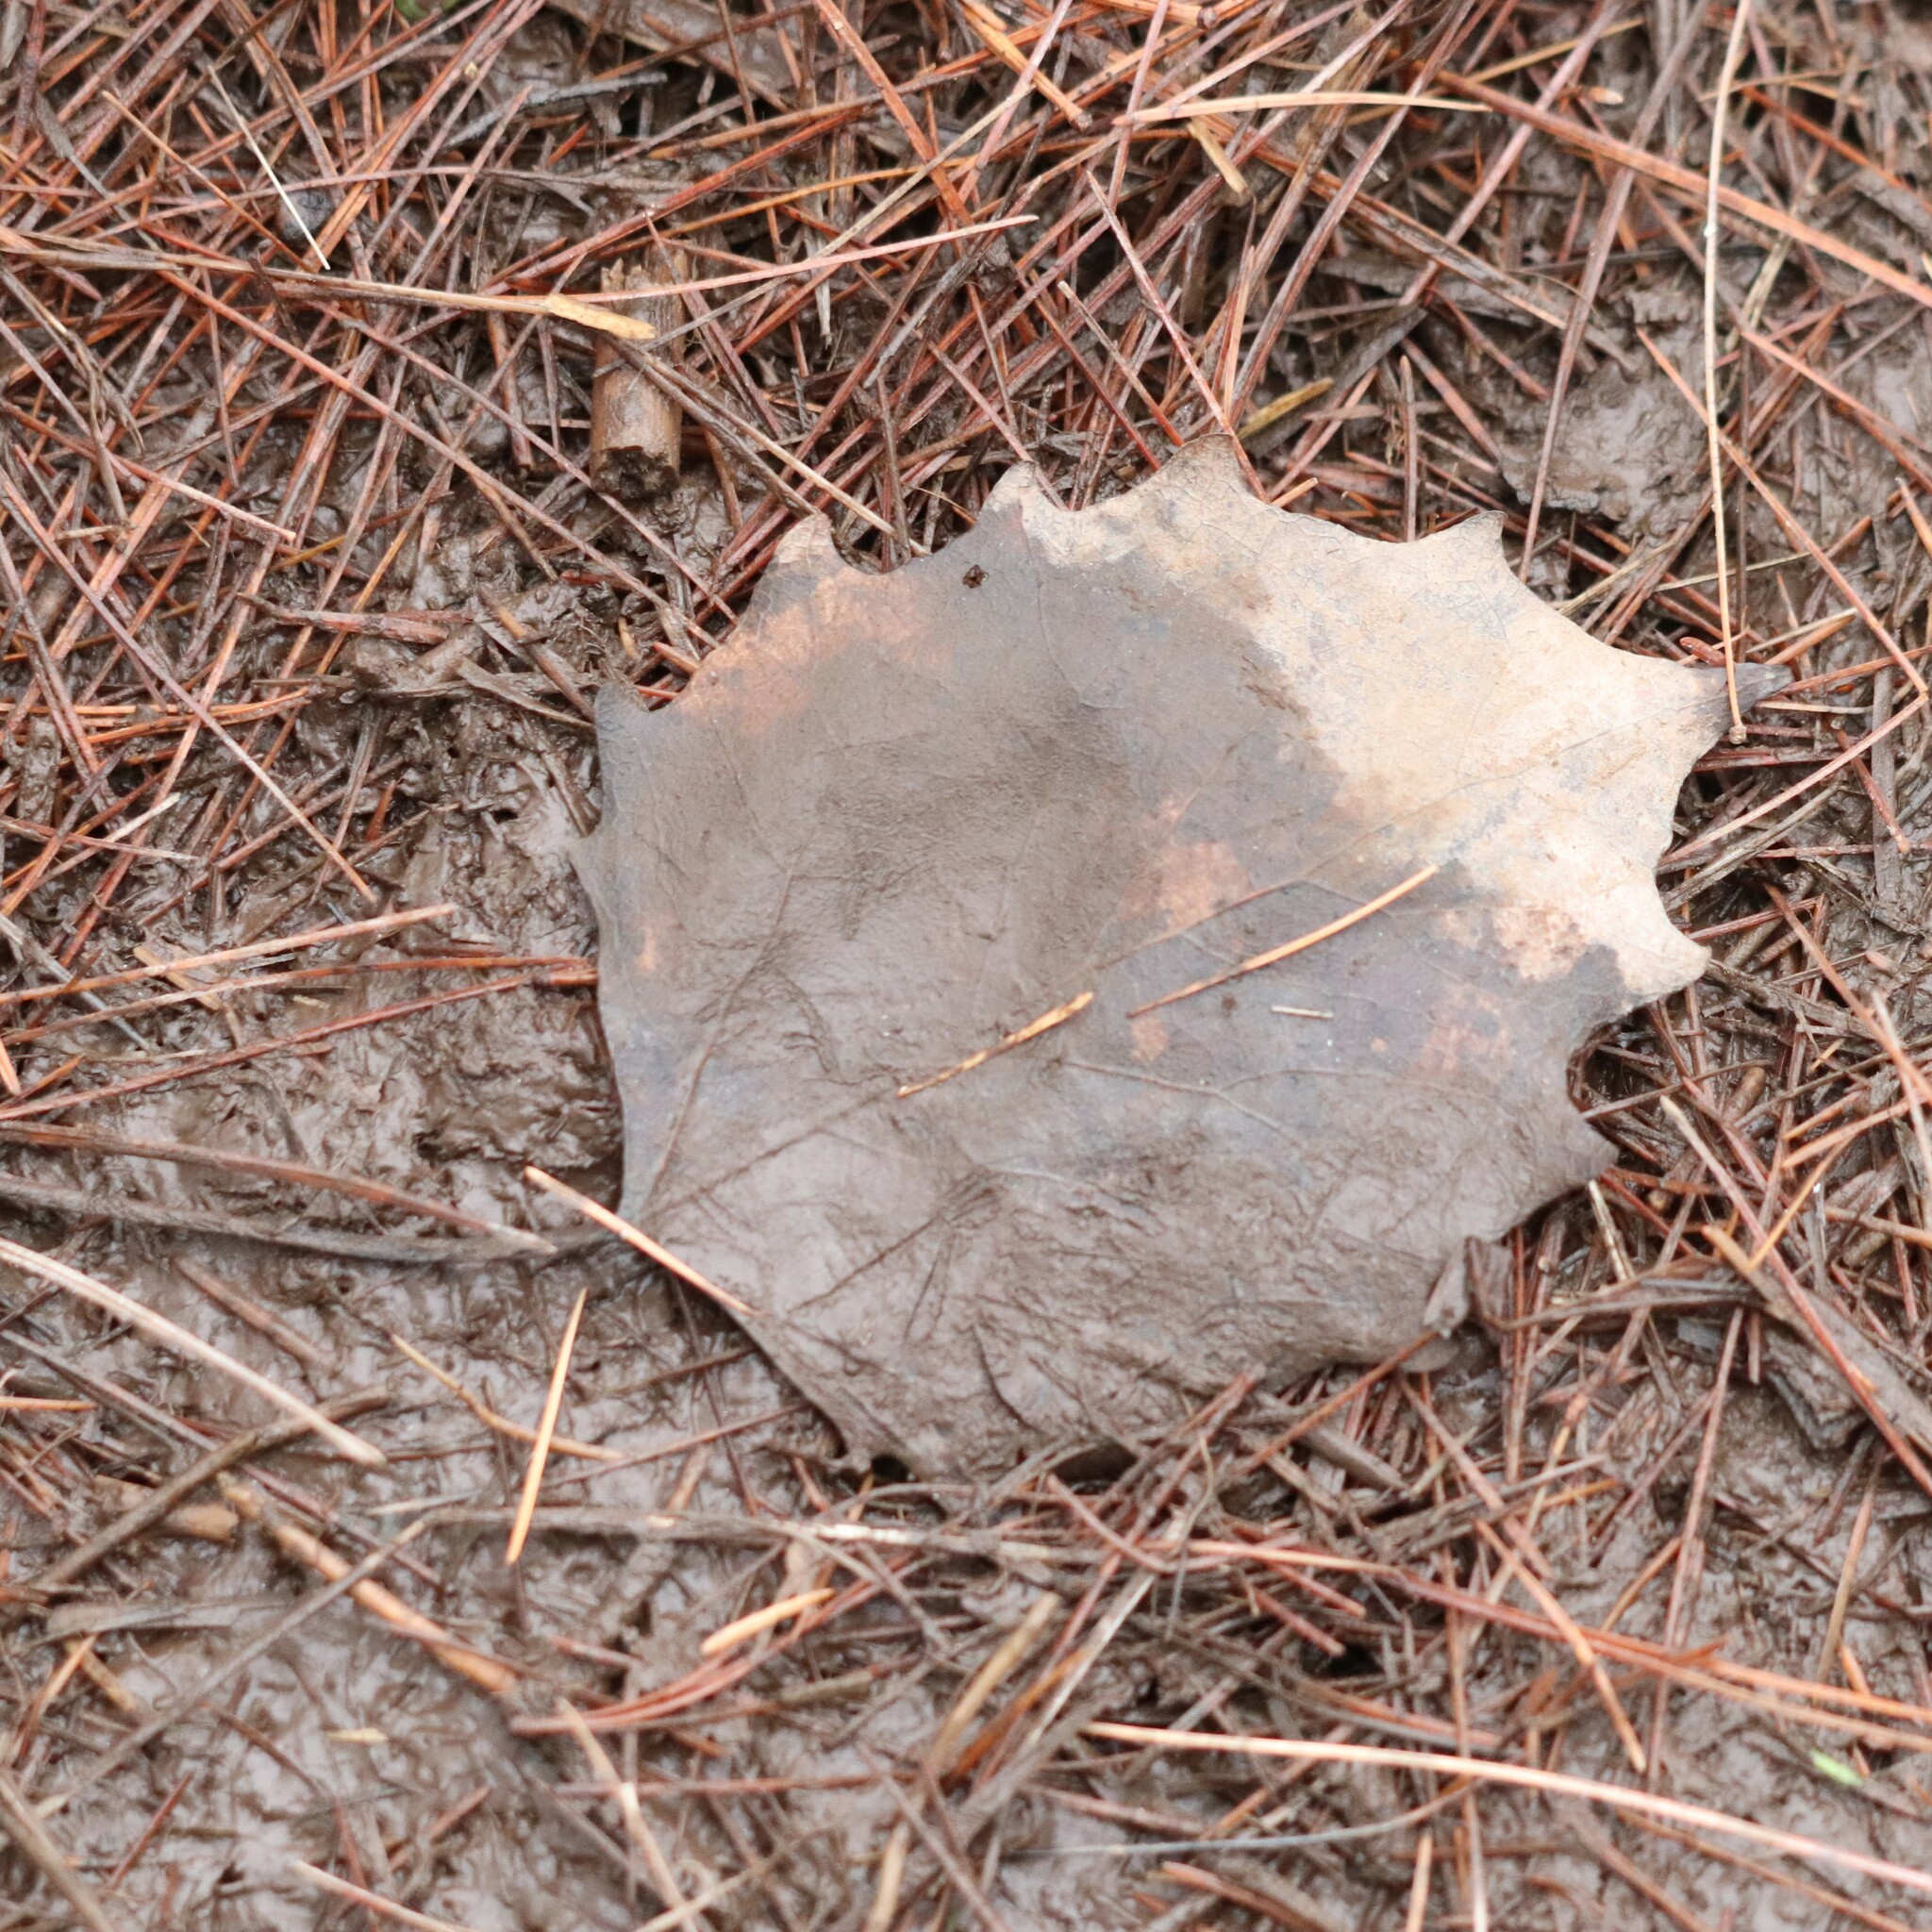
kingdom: Plantae
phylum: Tracheophyta
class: Magnoliopsida
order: Malpighiales
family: Salicaceae
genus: Populus
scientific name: Populus grandidentata
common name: Bigtooth aspen
